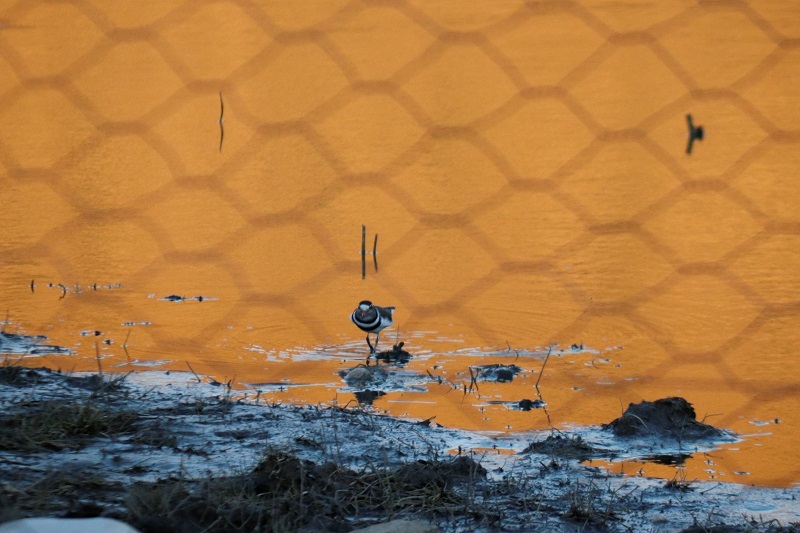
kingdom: Animalia
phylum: Chordata
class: Aves
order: Charadriiformes
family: Charadriidae
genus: Charadrius
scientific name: Charadrius tricollaris
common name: Three-banded plover
